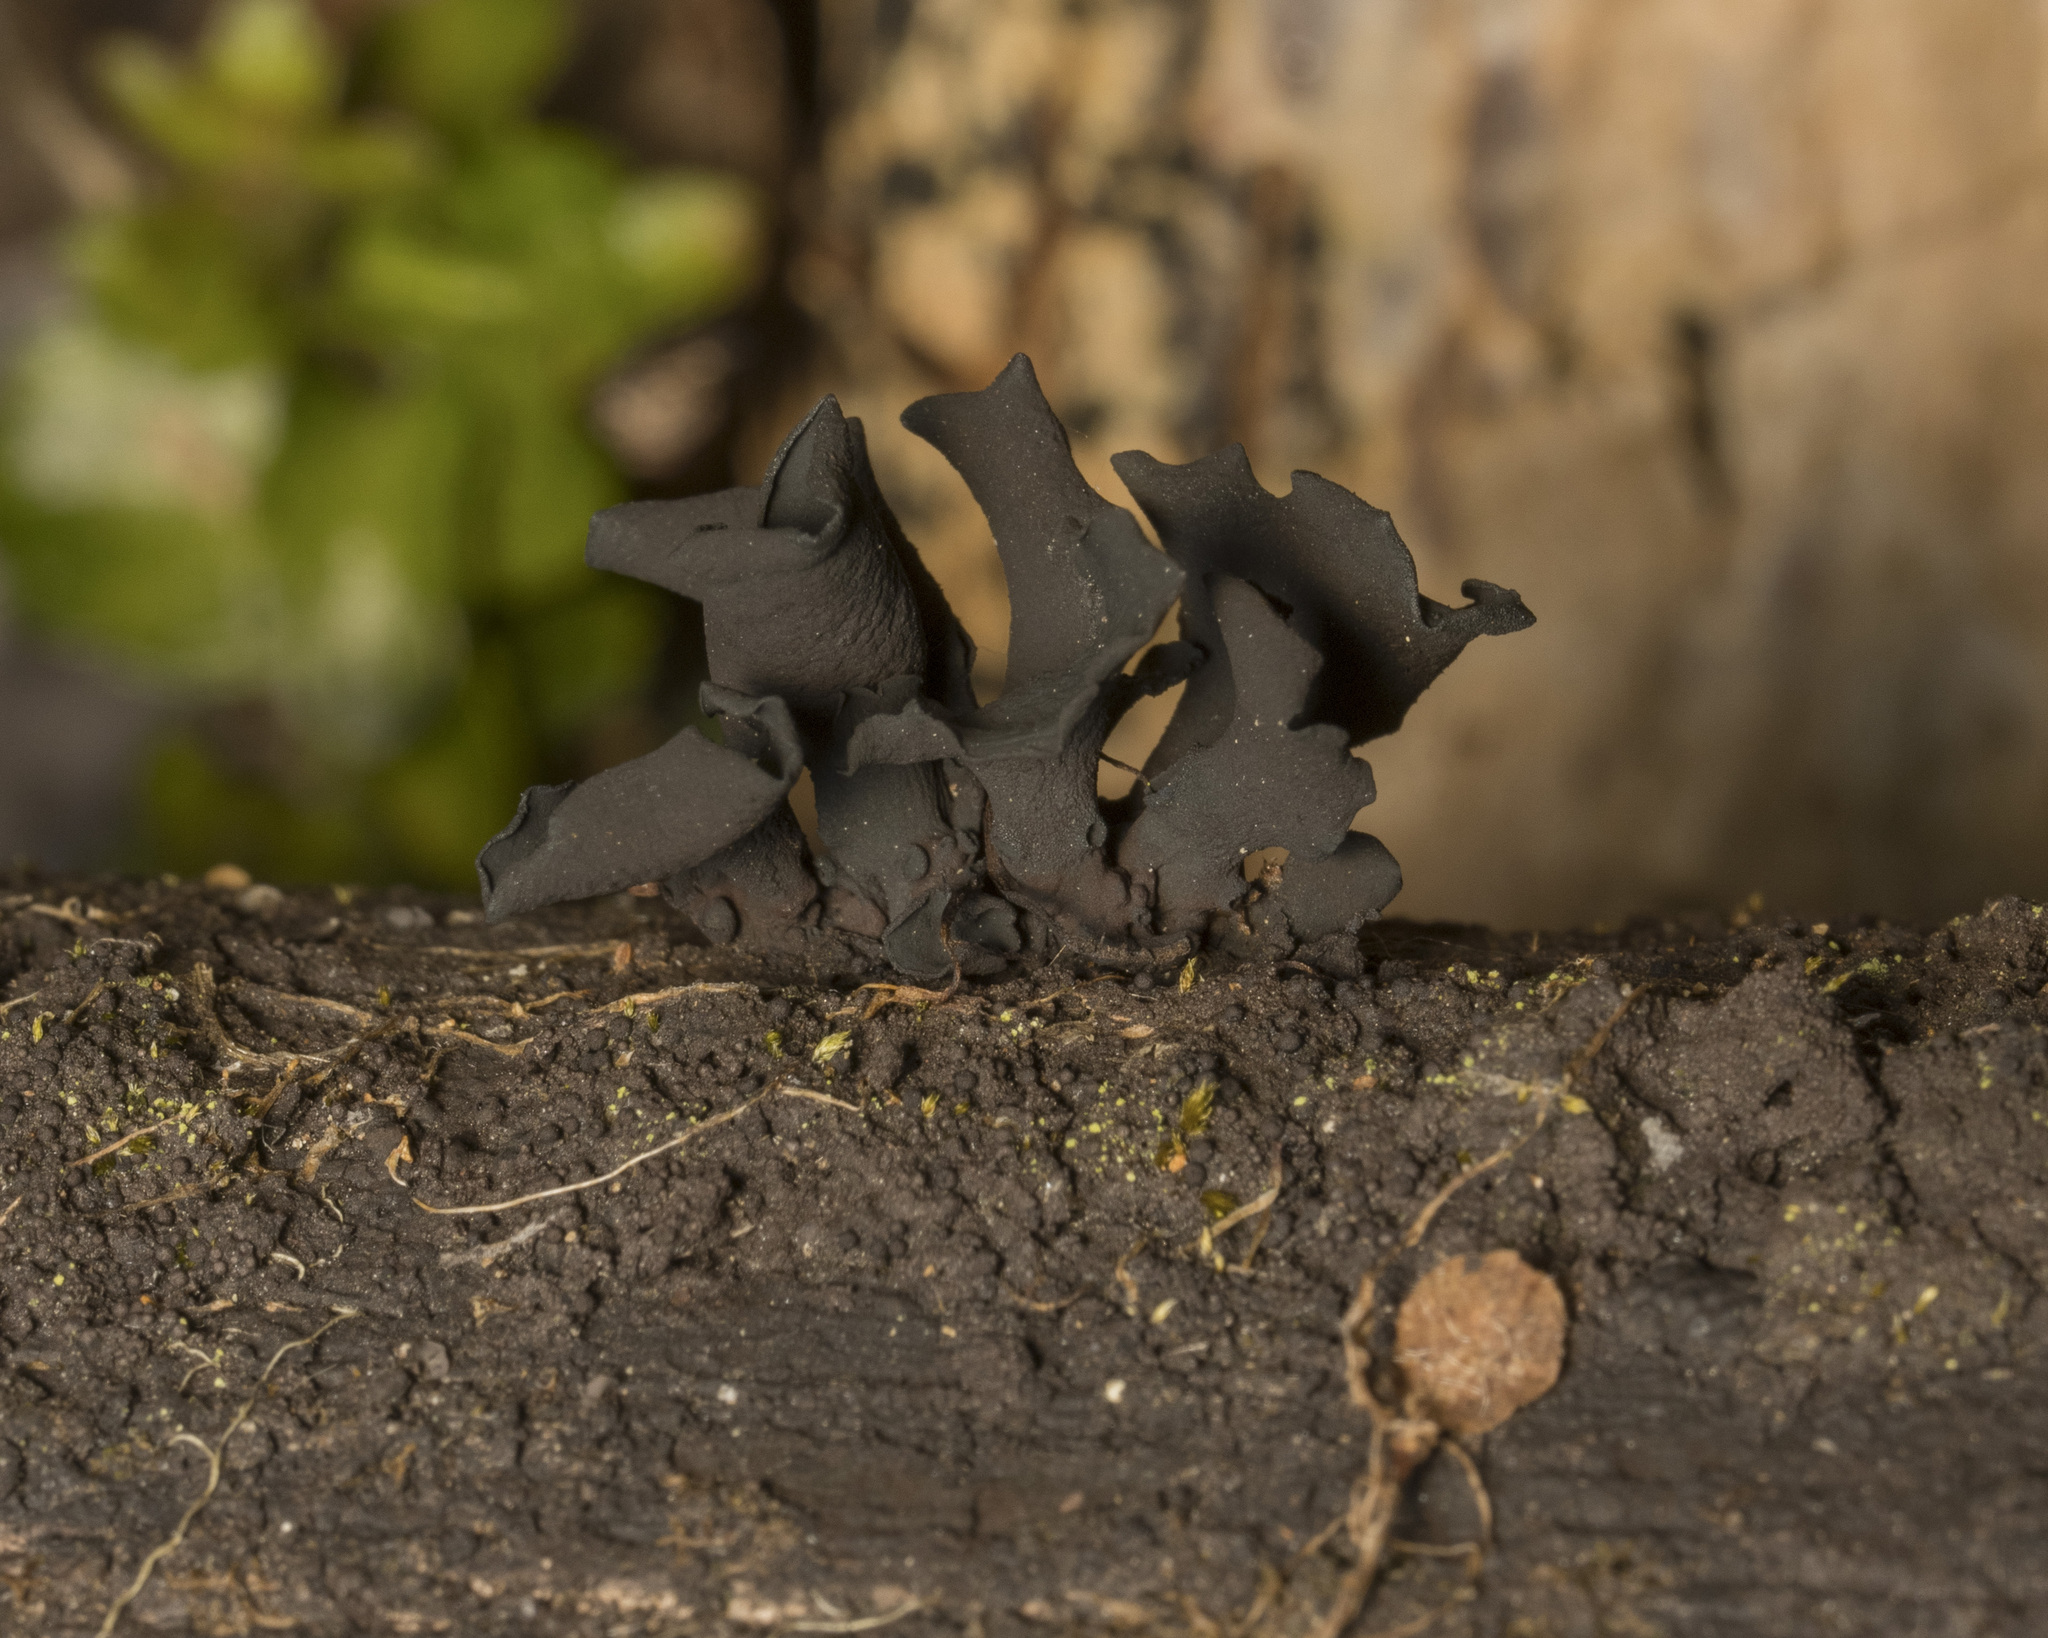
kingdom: Fungi
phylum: Ascomycota
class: Leotiomycetes
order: Helotiales
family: Cordieritidaceae
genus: Ameghiniella
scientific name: Ameghiniella australis
